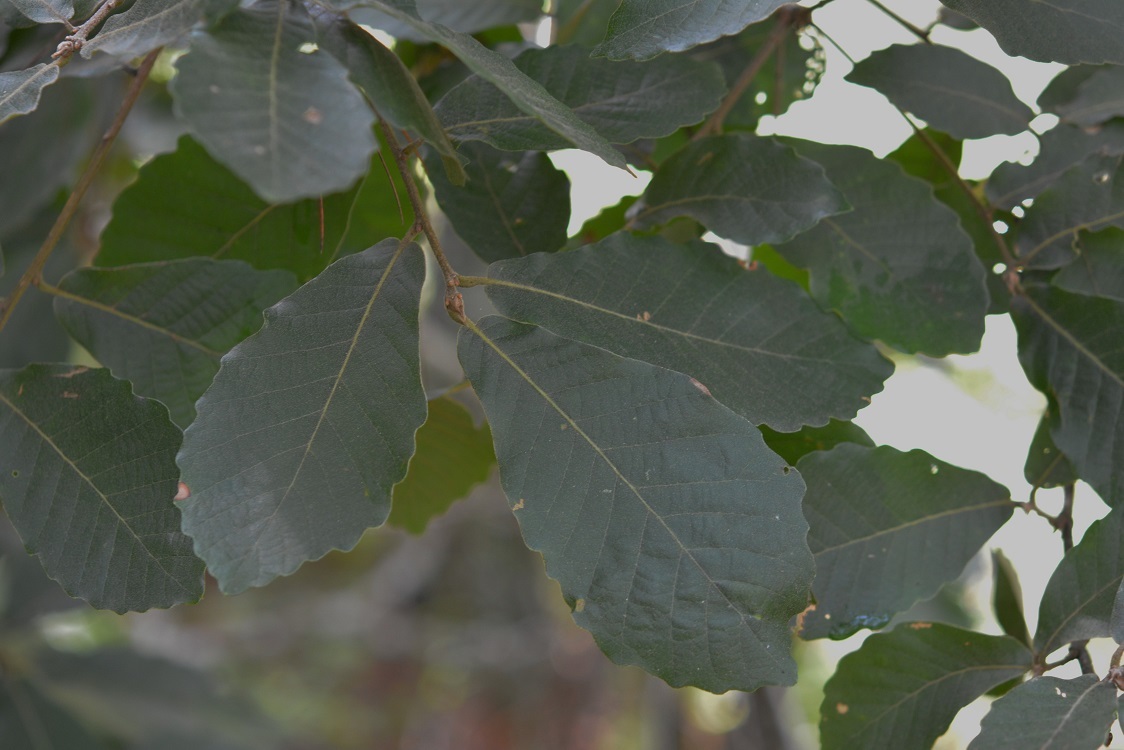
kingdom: Plantae
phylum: Tracheophyta
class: Magnoliopsida
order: Fagales
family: Fagaceae
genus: Quercus
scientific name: Quercus segoviensis
